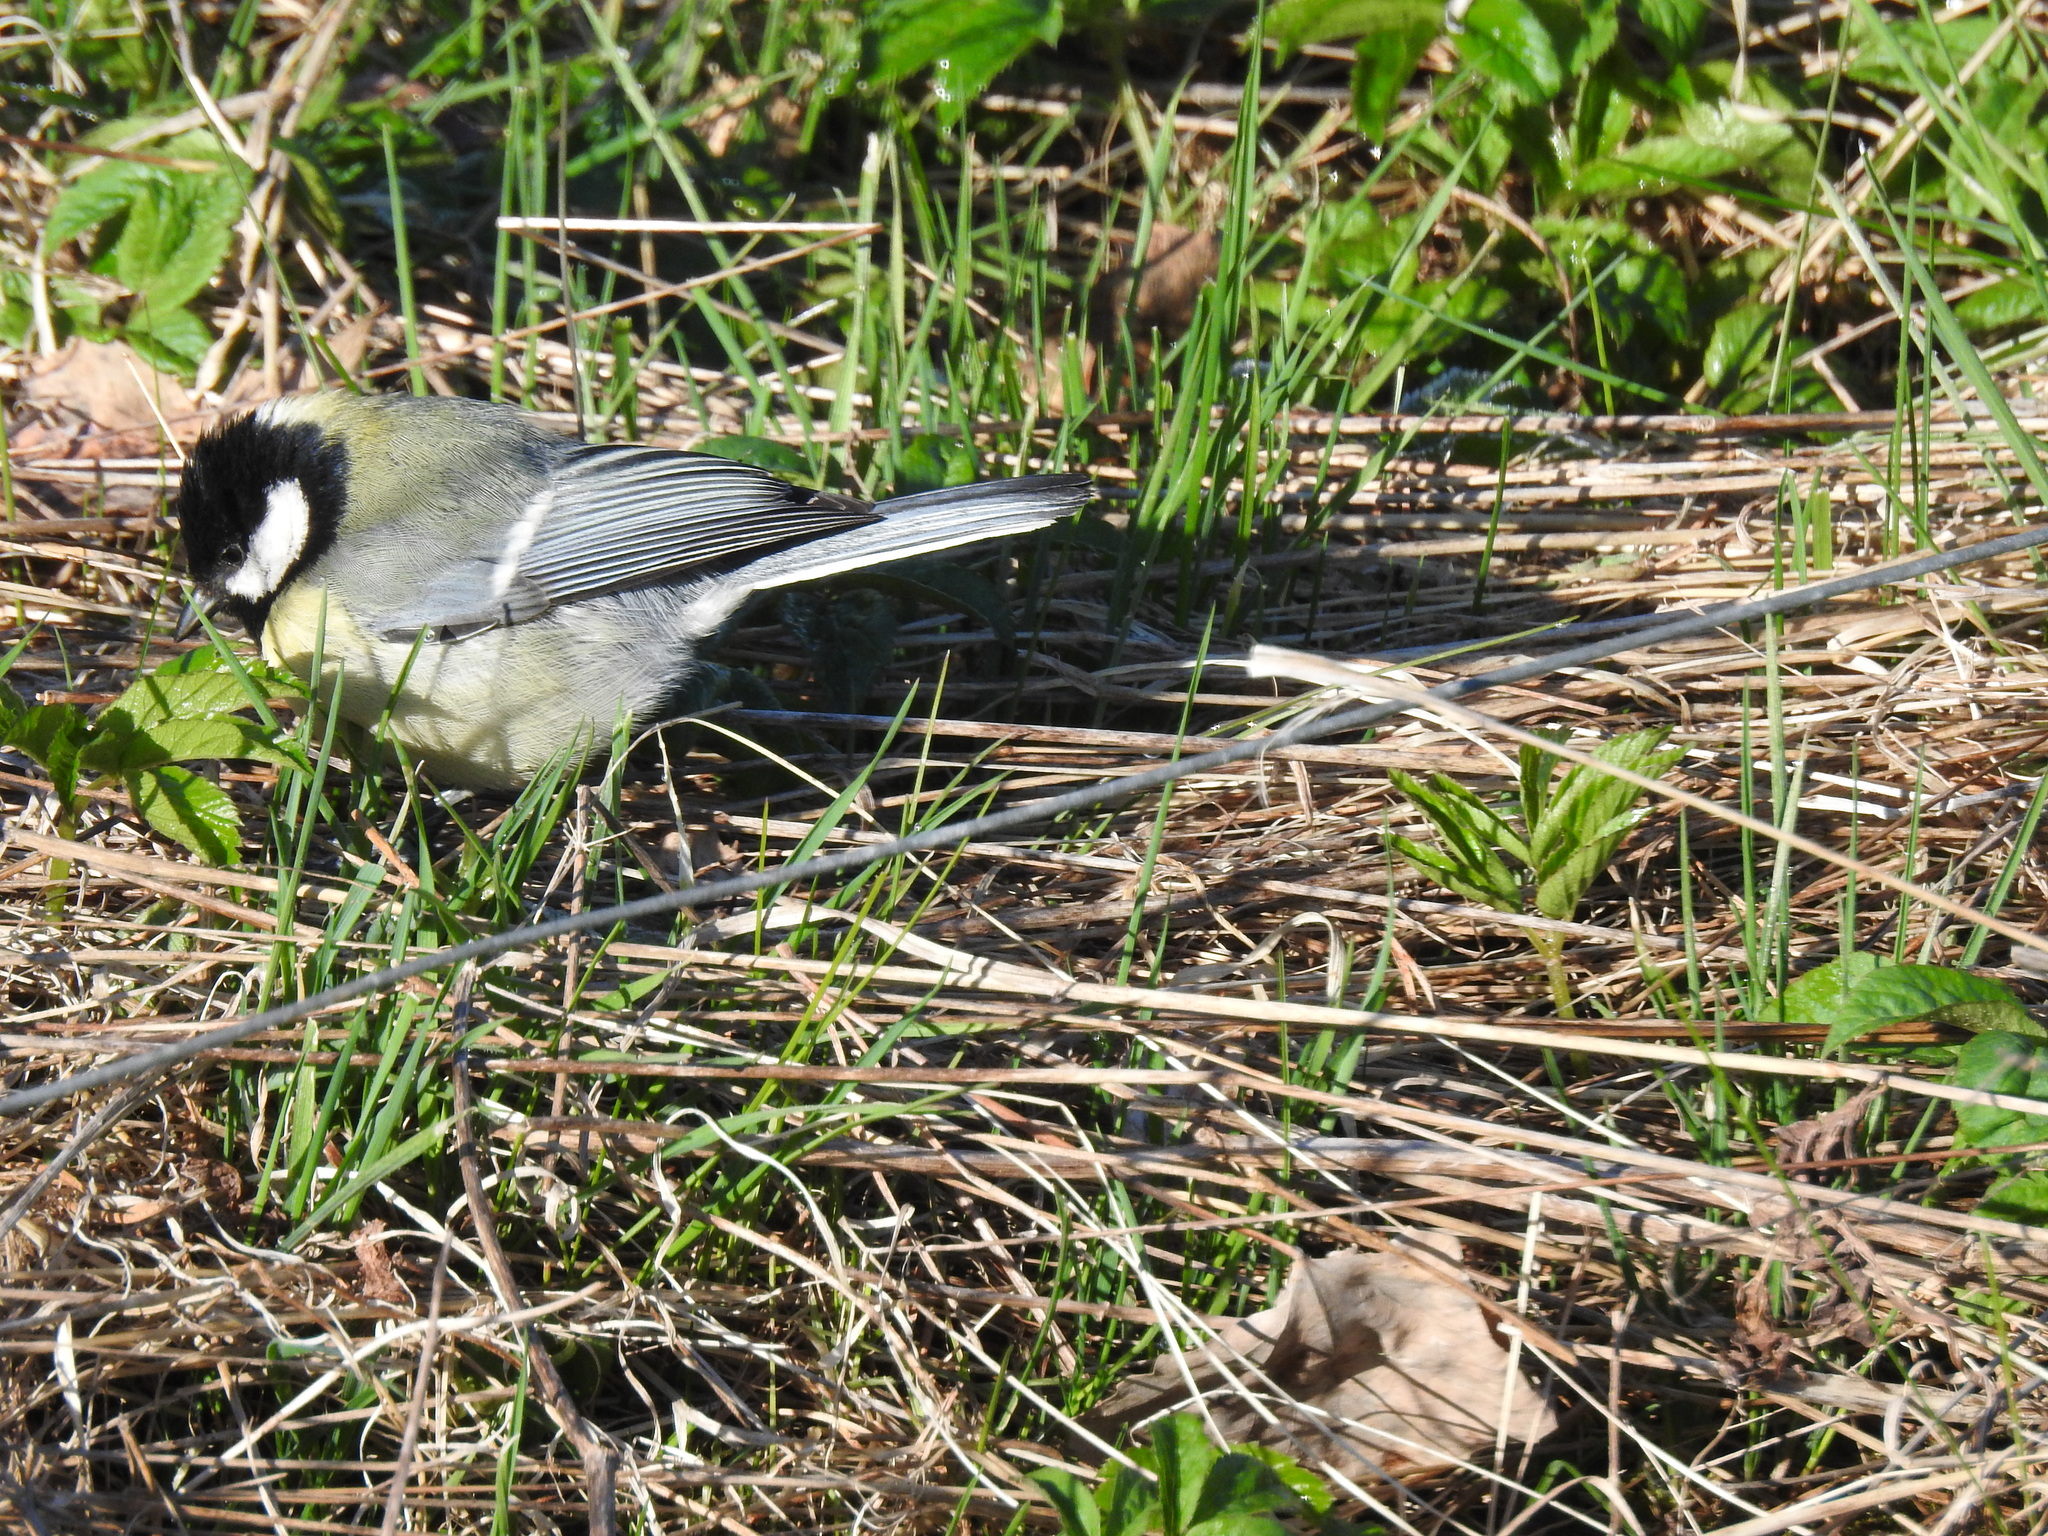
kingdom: Animalia
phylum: Chordata
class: Aves
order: Passeriformes
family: Paridae
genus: Parus
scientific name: Parus major
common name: Great tit
